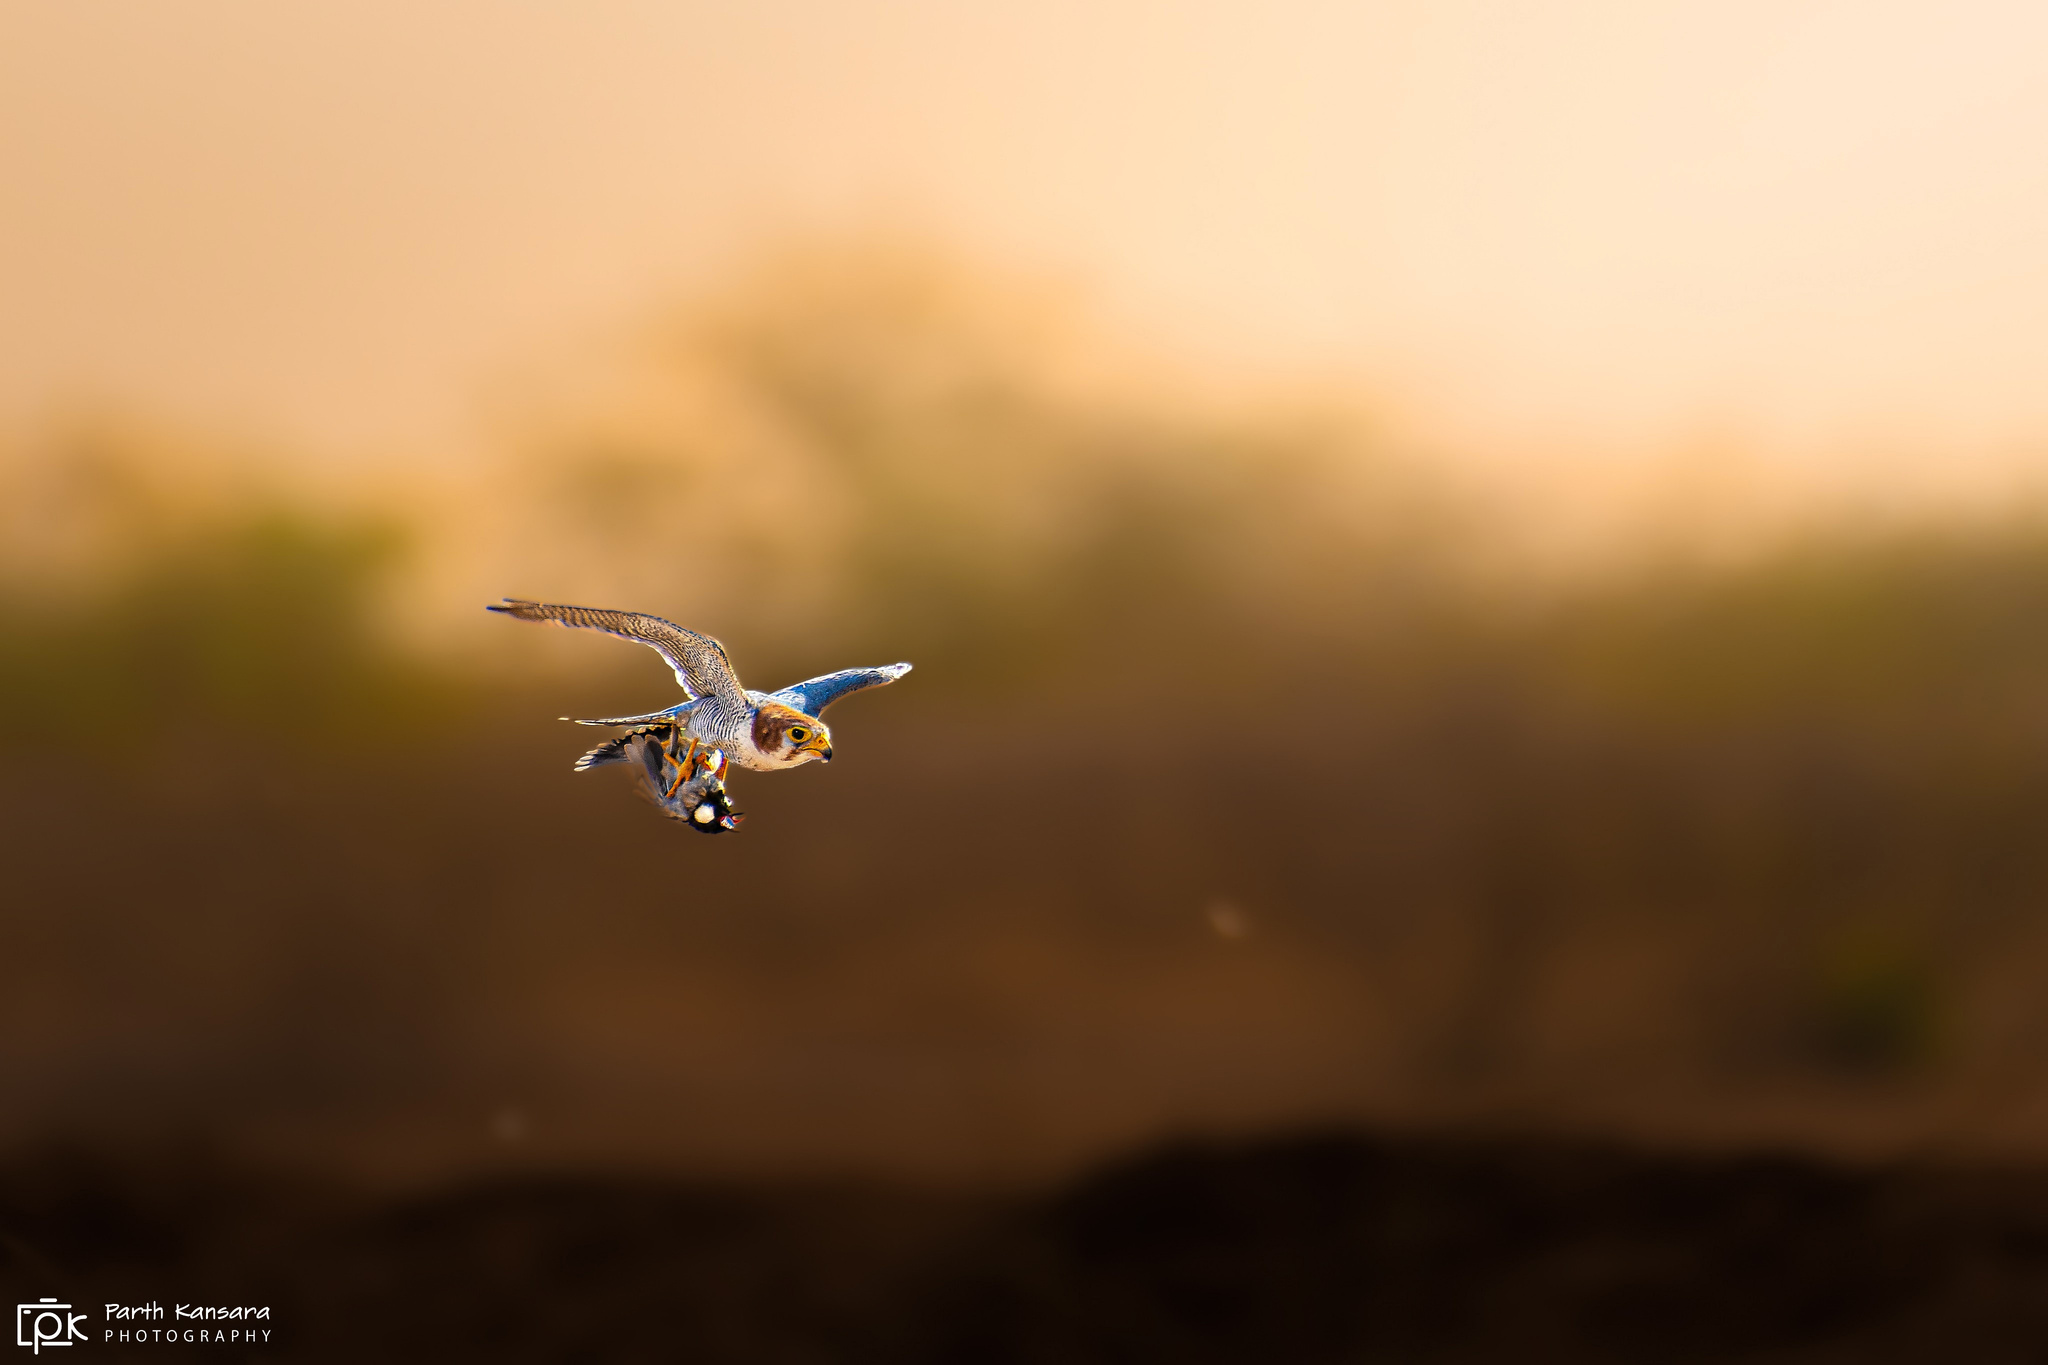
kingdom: Animalia
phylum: Chordata
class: Aves
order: Falconiformes
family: Falconidae
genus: Falco
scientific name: Falco chicquera
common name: Red-necked falcon
